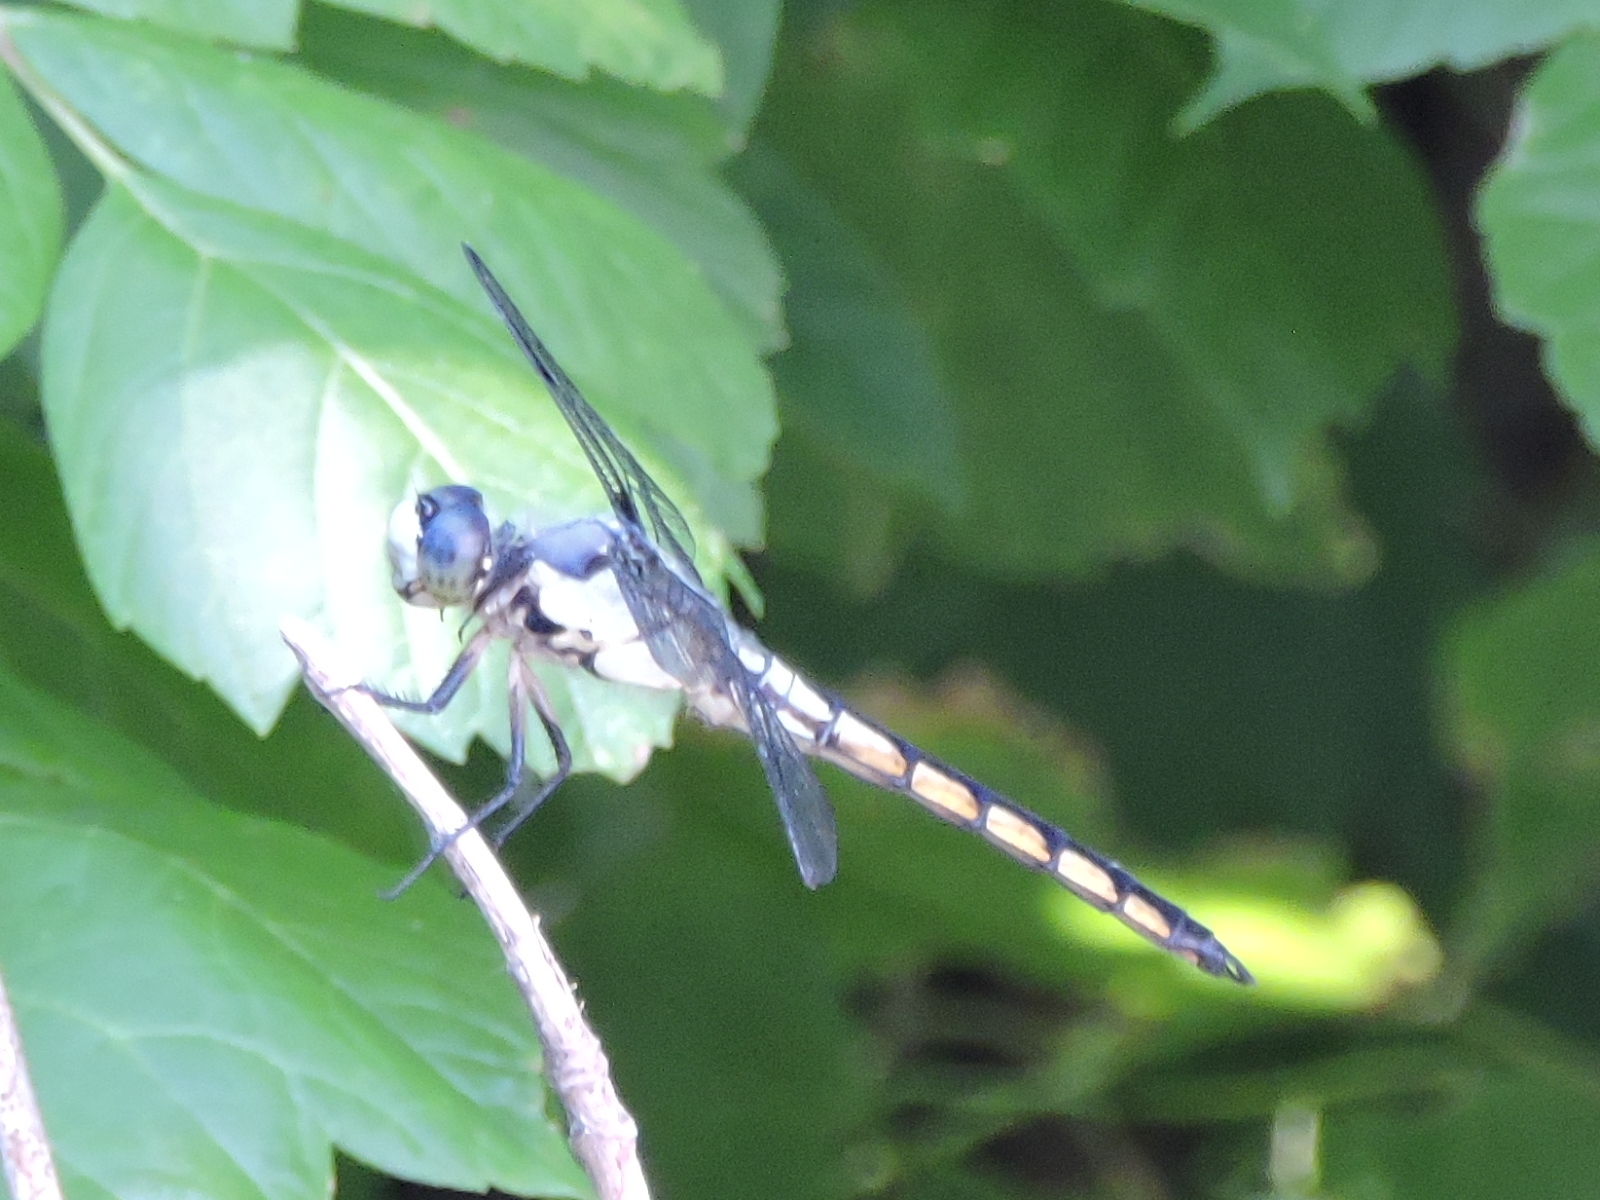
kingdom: Animalia
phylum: Arthropoda
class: Insecta
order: Odonata
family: Libellulidae
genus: Libellula
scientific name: Libellula vibrans
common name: Great blue skimmer
